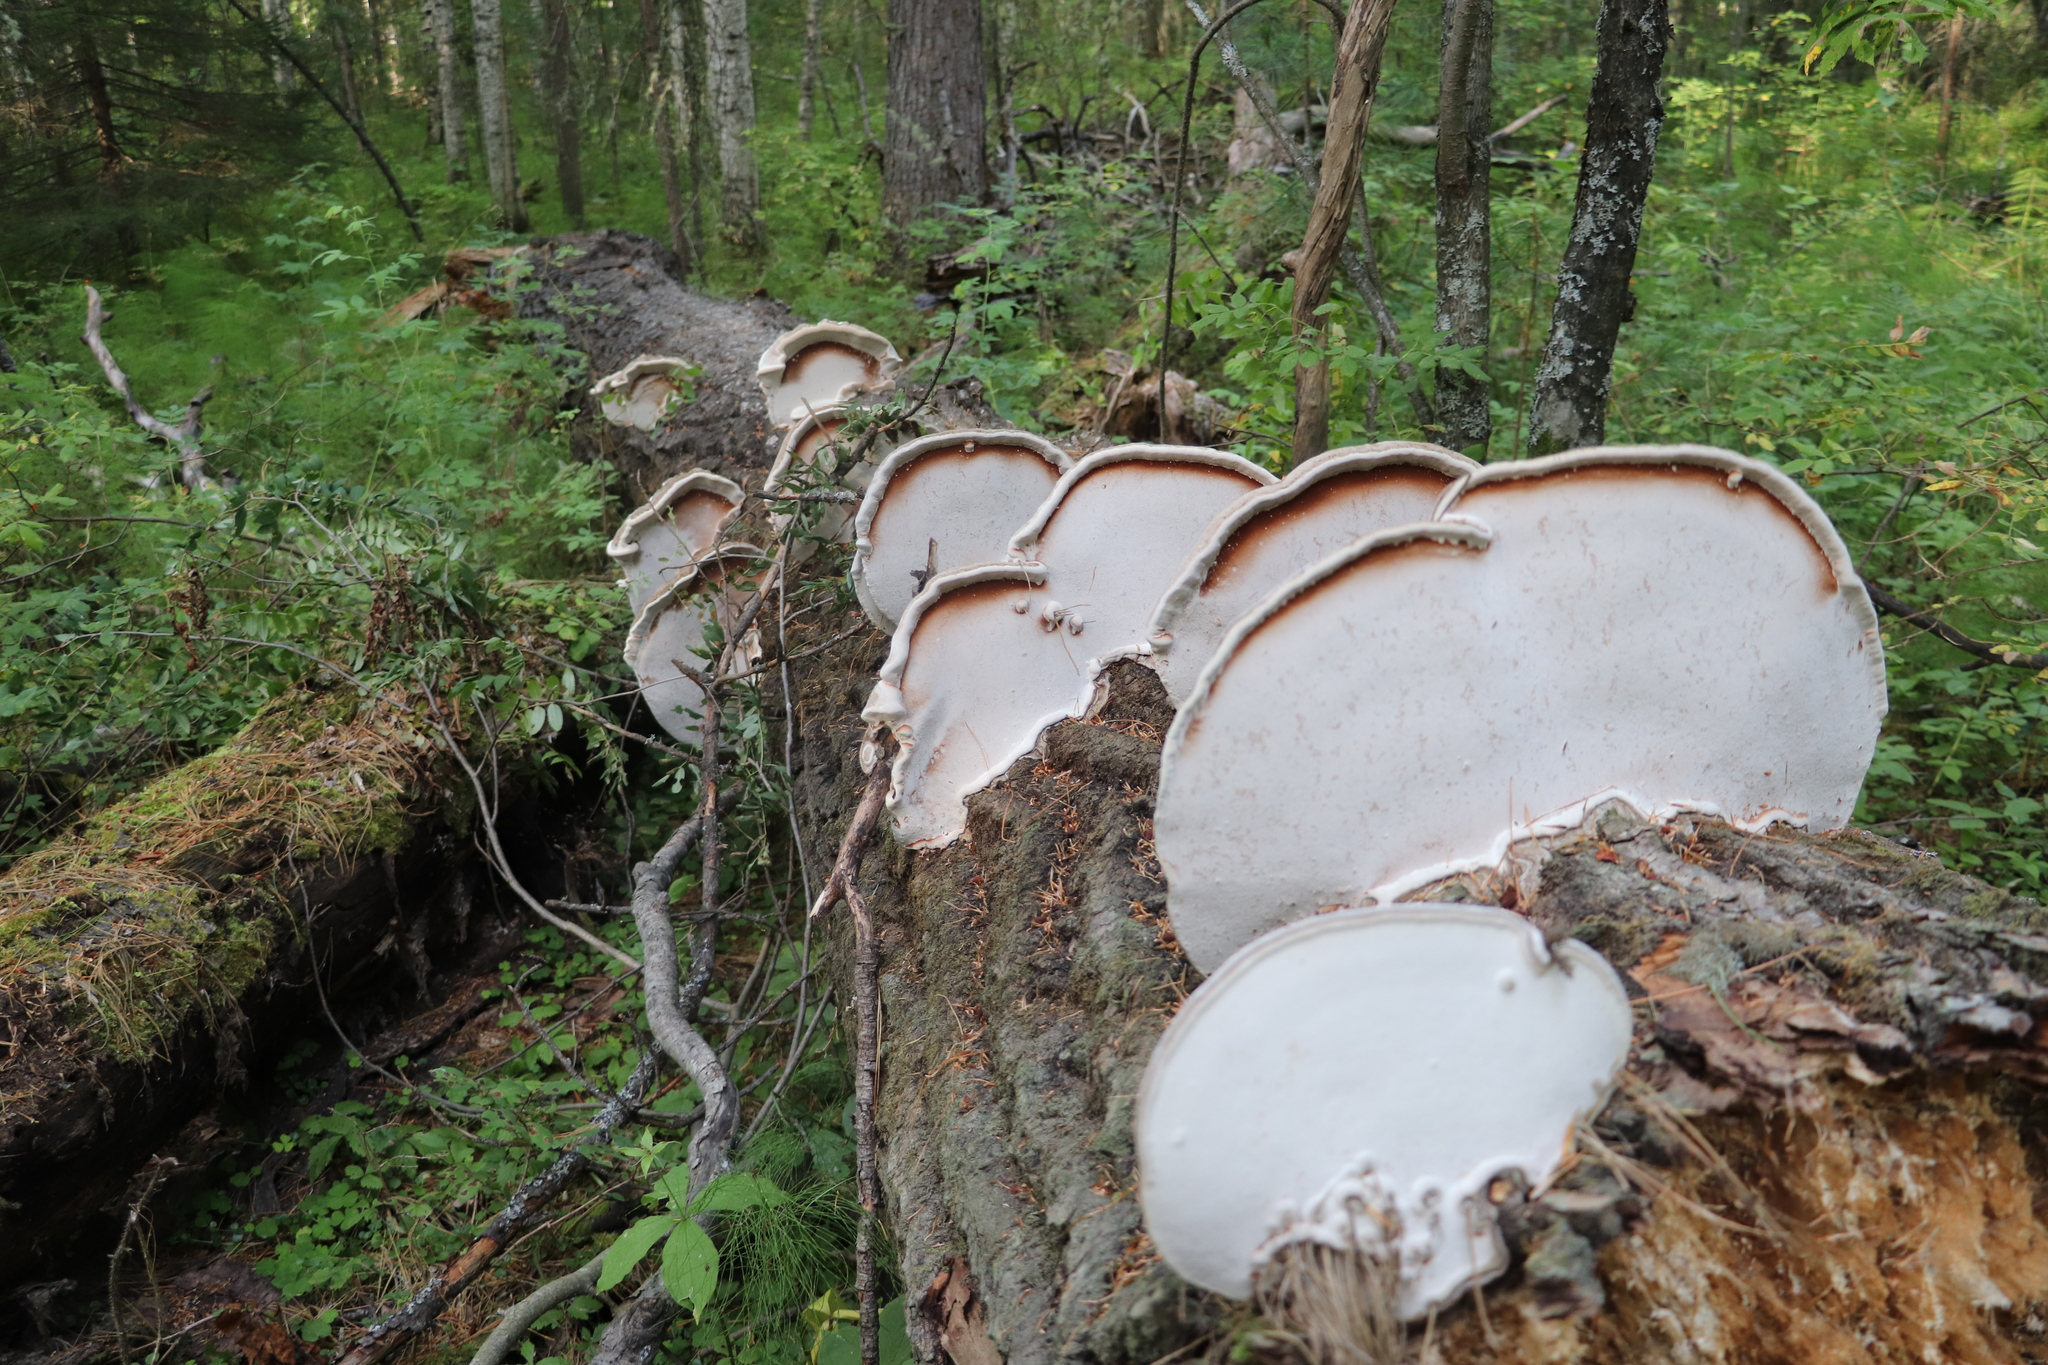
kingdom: Fungi
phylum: Basidiomycota
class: Agaricomycetes
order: Polyporales
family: Polyporaceae
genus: Ganoderma
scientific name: Ganoderma applanatum
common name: Artist's bracket
